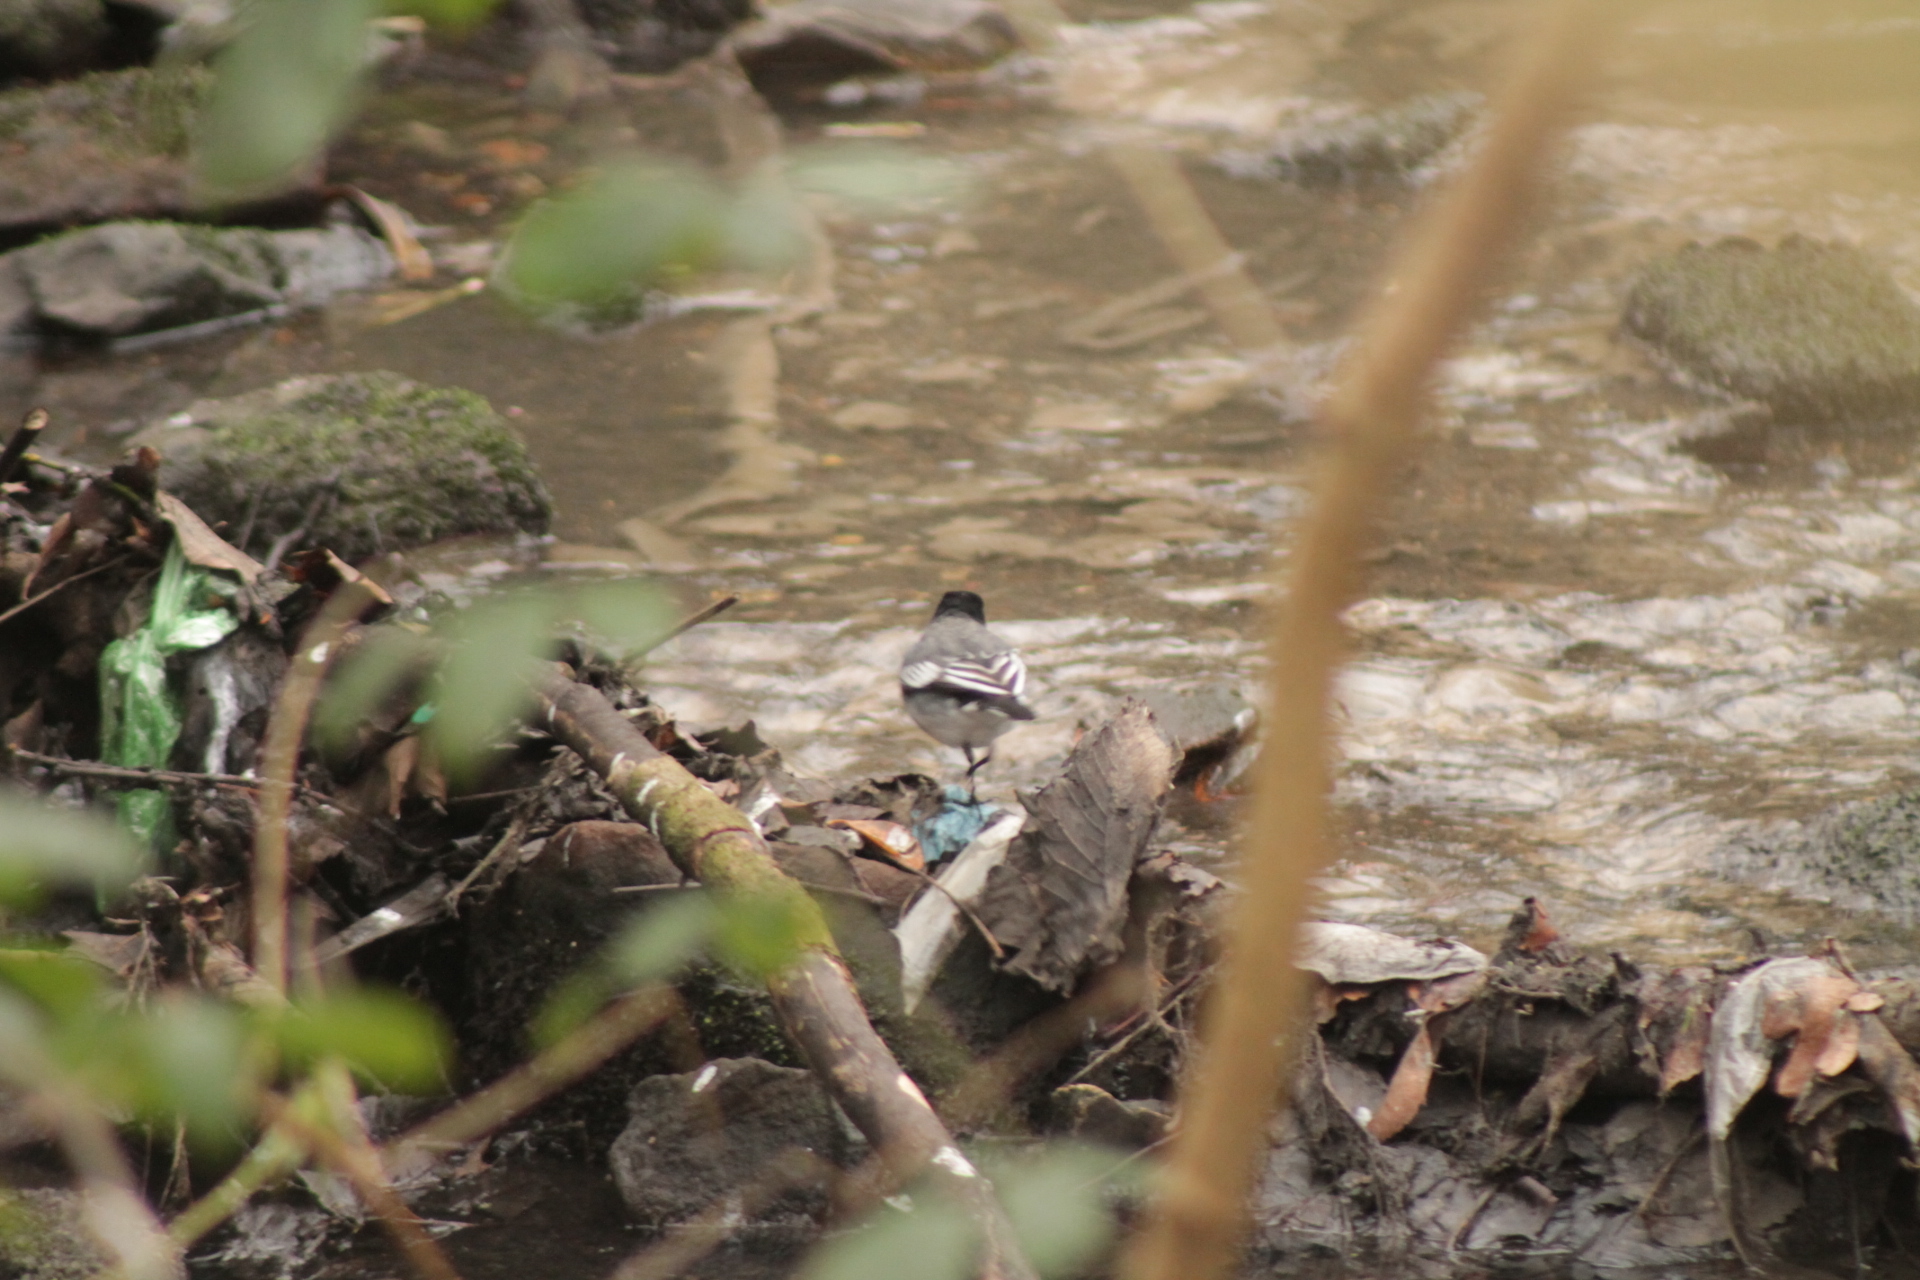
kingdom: Animalia
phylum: Chordata
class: Aves
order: Passeriformes
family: Motacillidae
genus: Motacilla
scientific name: Motacilla alba
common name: White wagtail
